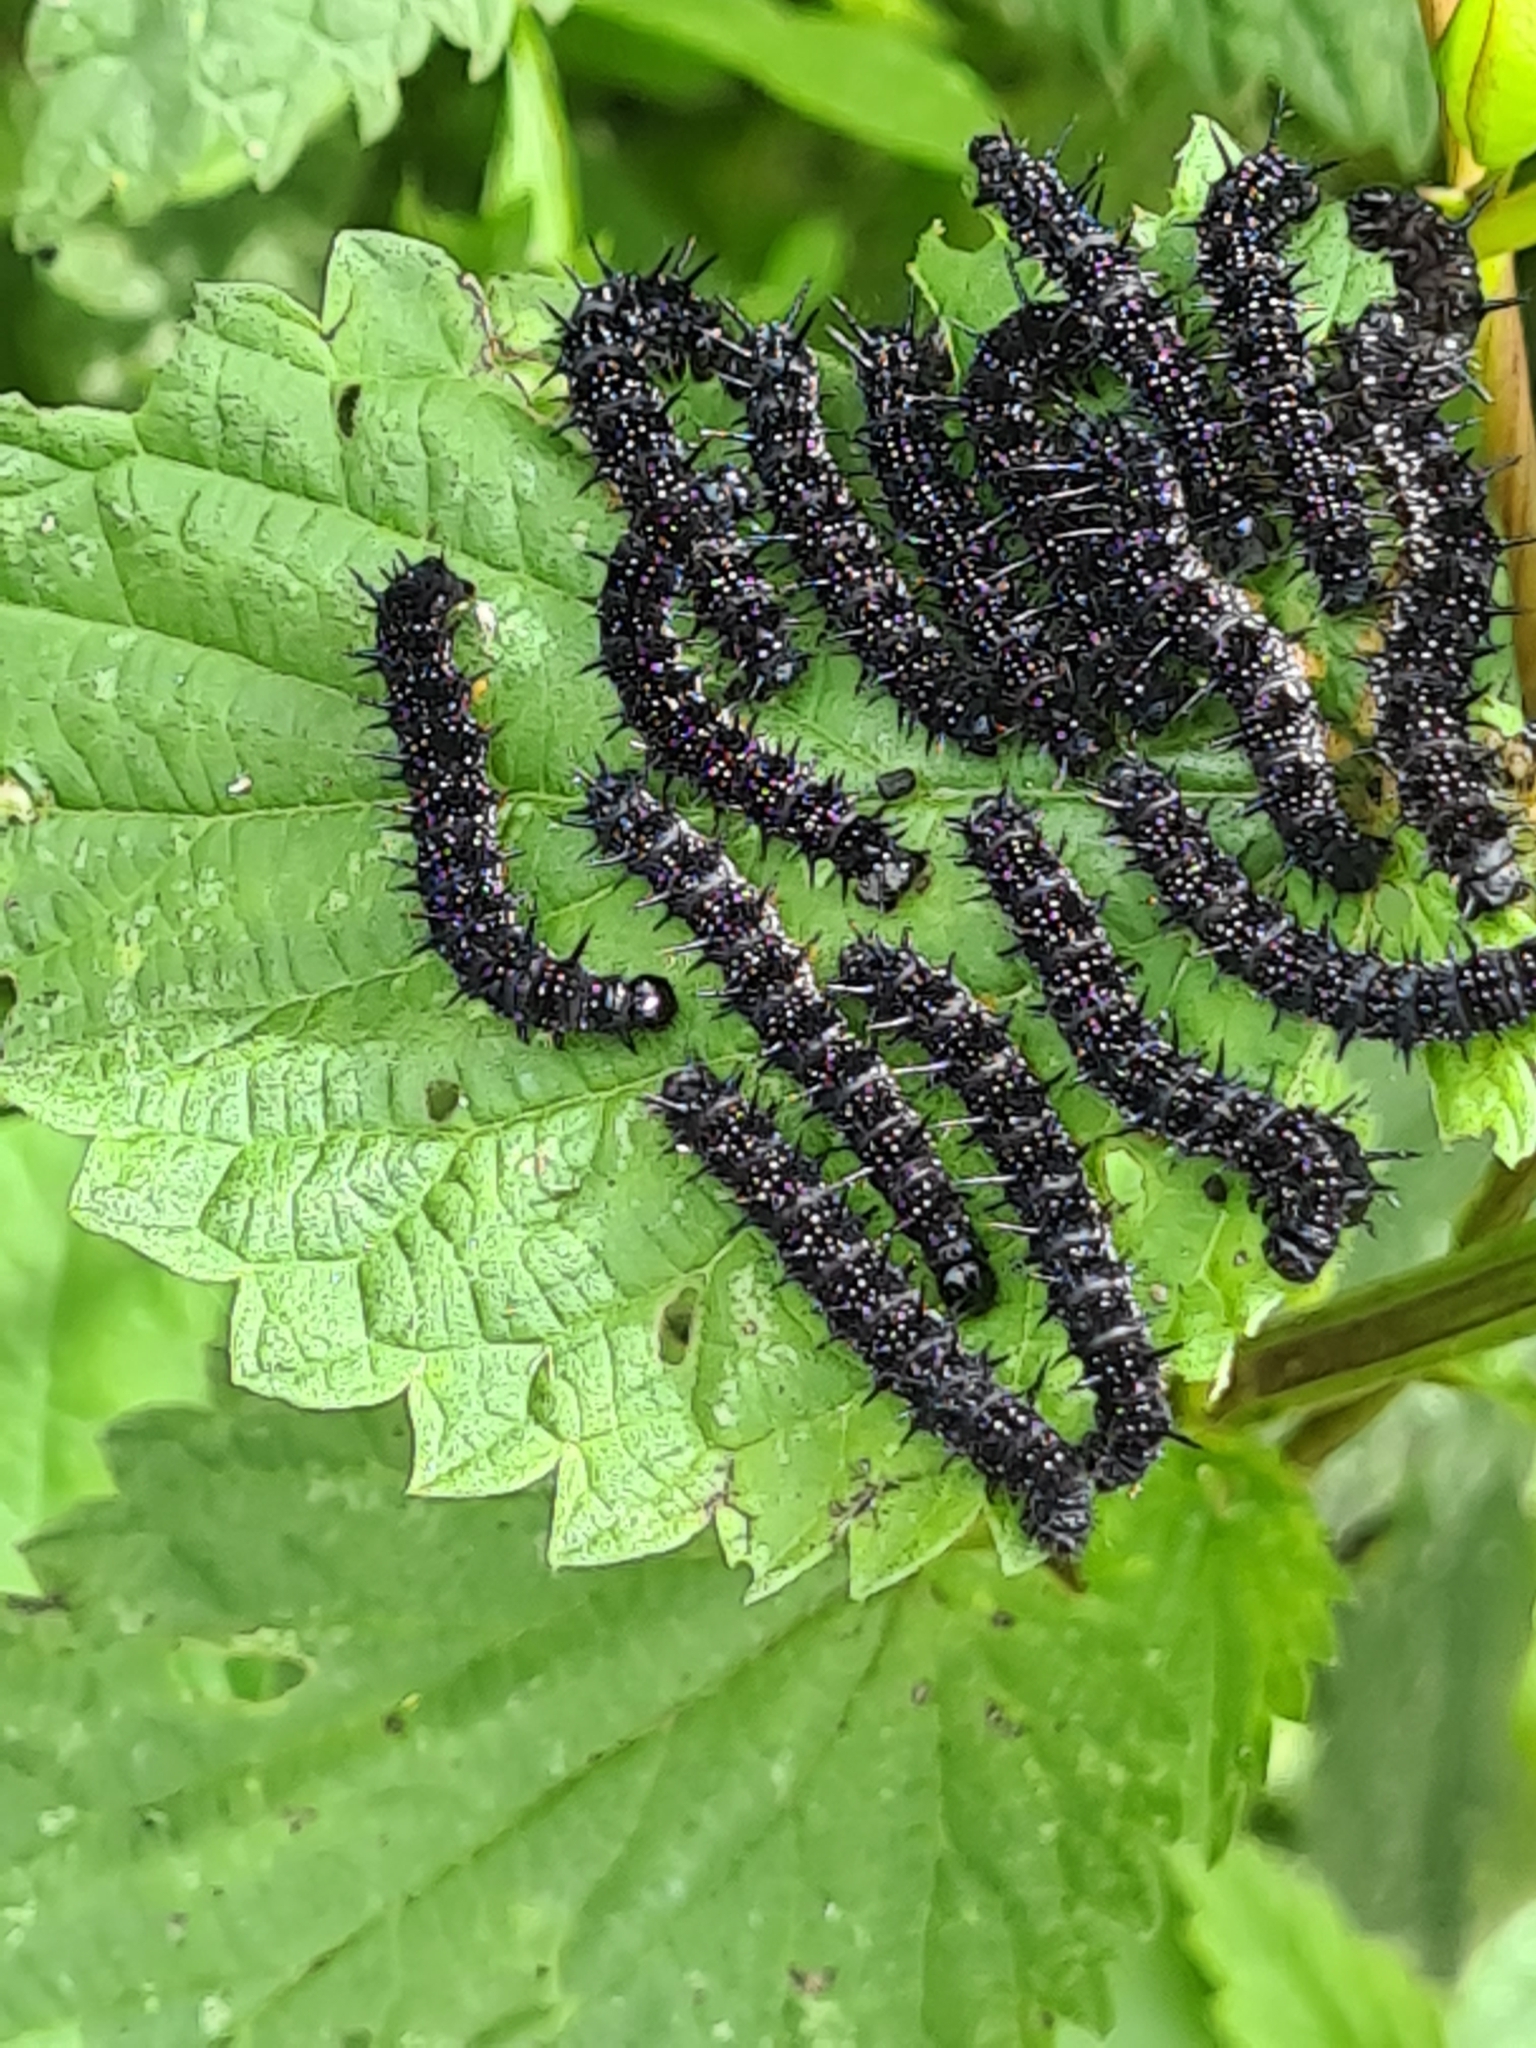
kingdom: Animalia
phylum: Arthropoda
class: Insecta
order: Lepidoptera
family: Nymphalidae
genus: Aglais
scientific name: Aglais io
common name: Peacock
